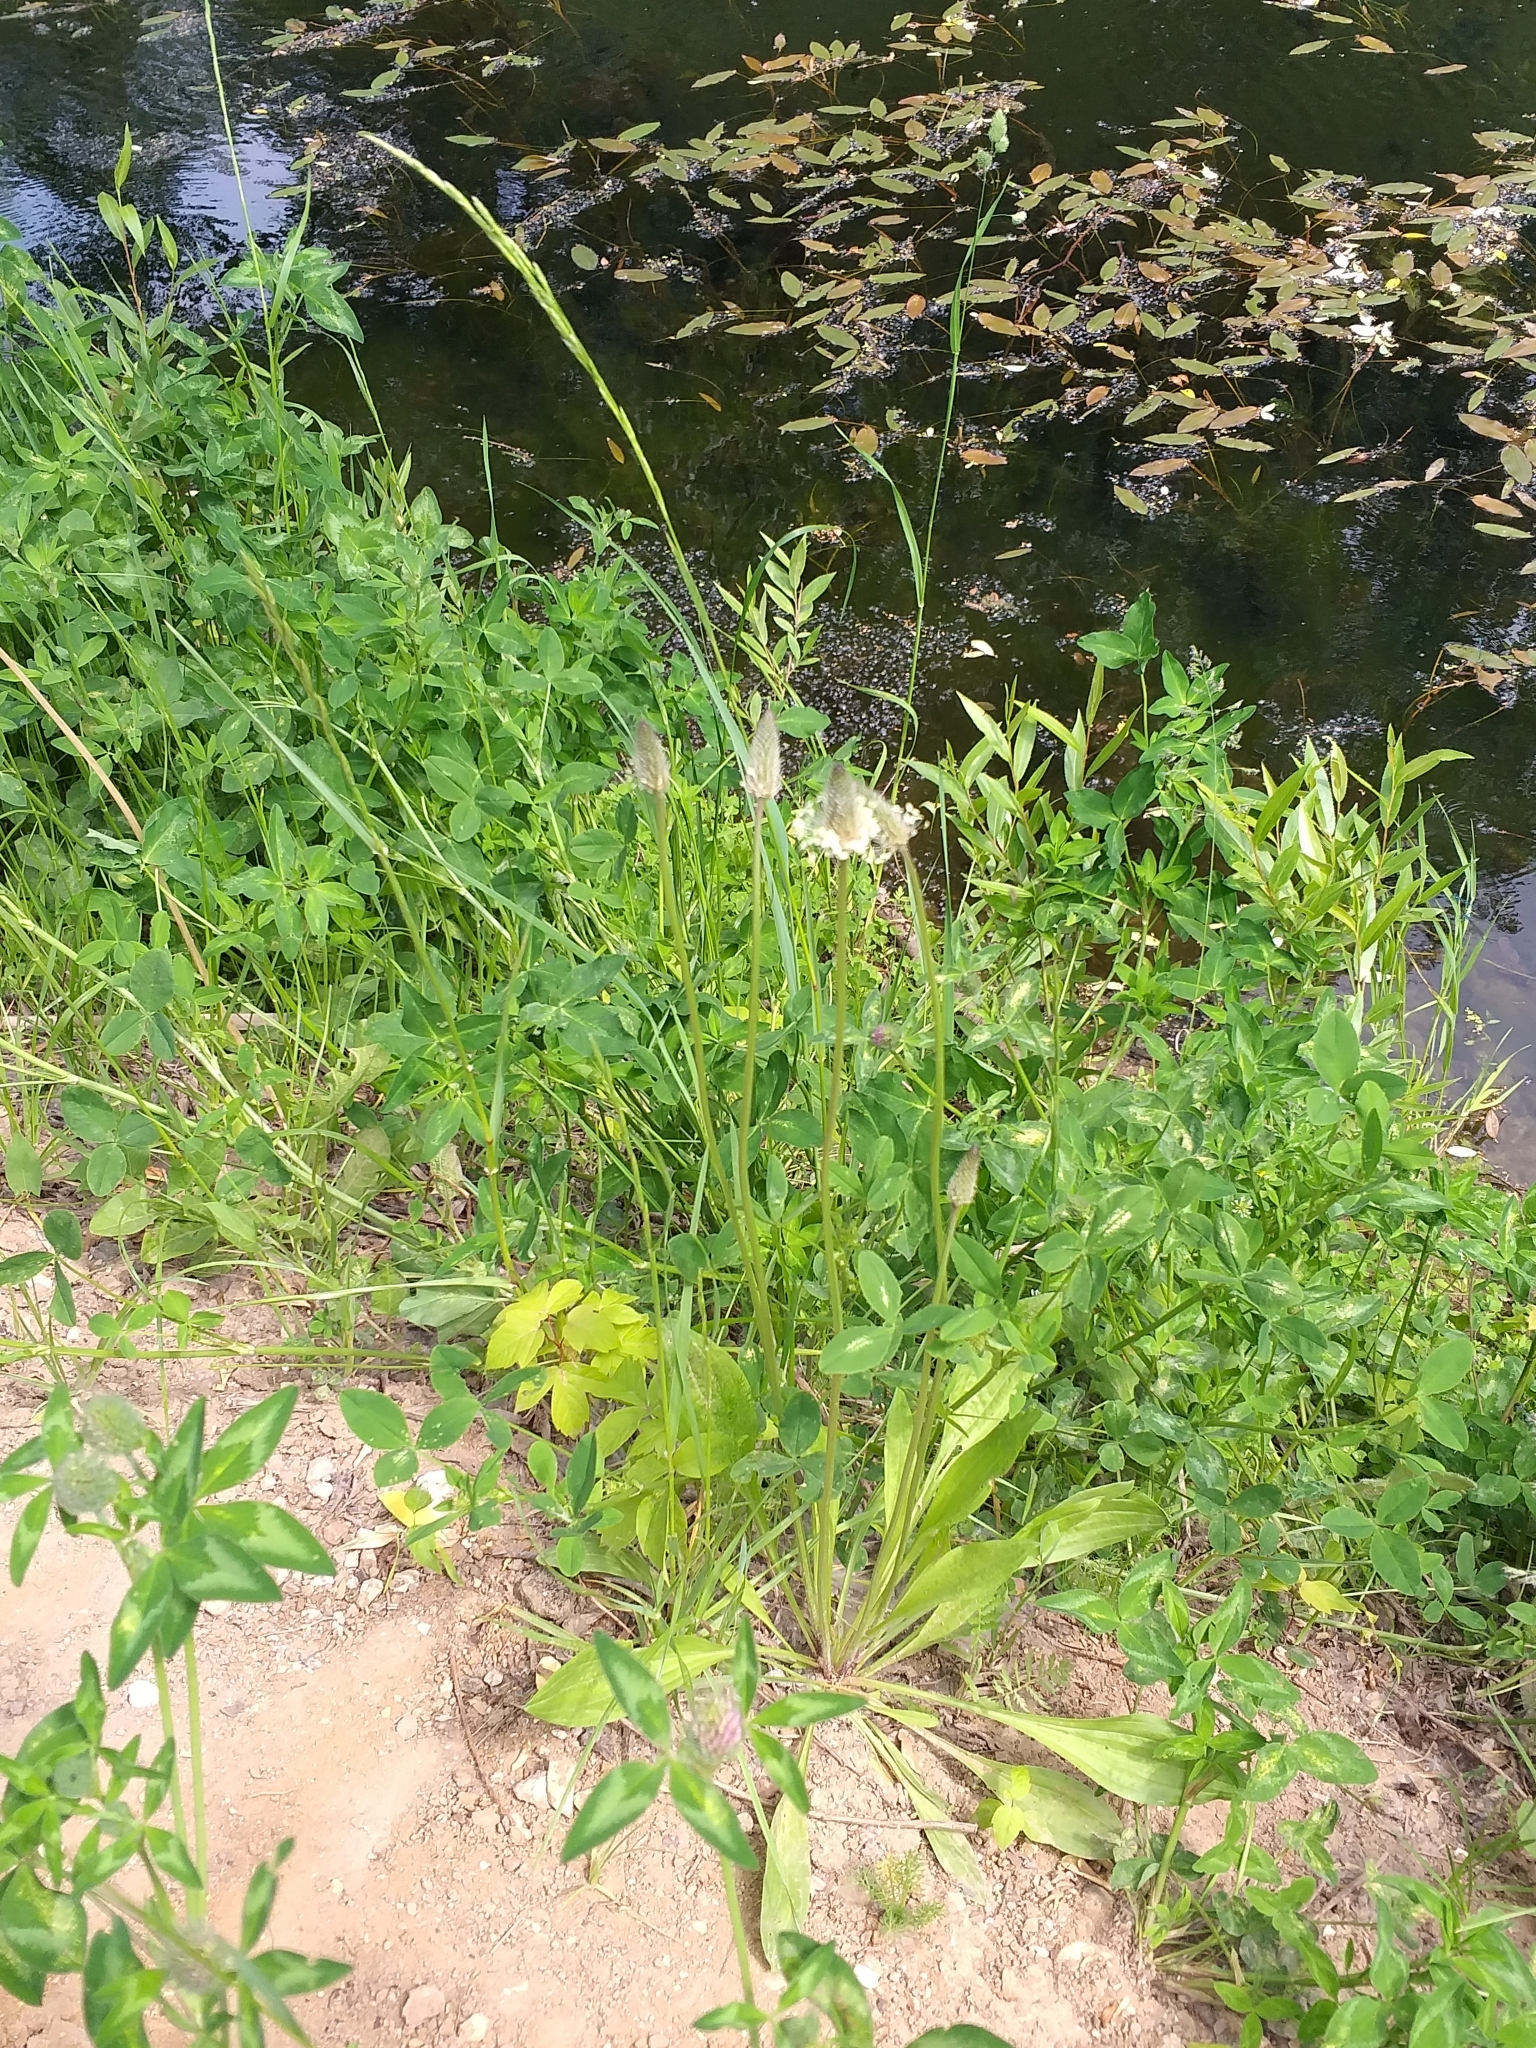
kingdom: Plantae
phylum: Tracheophyta
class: Magnoliopsida
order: Lamiales
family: Plantaginaceae
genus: Plantago
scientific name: Plantago lanceolata
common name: Ribwort plantain
